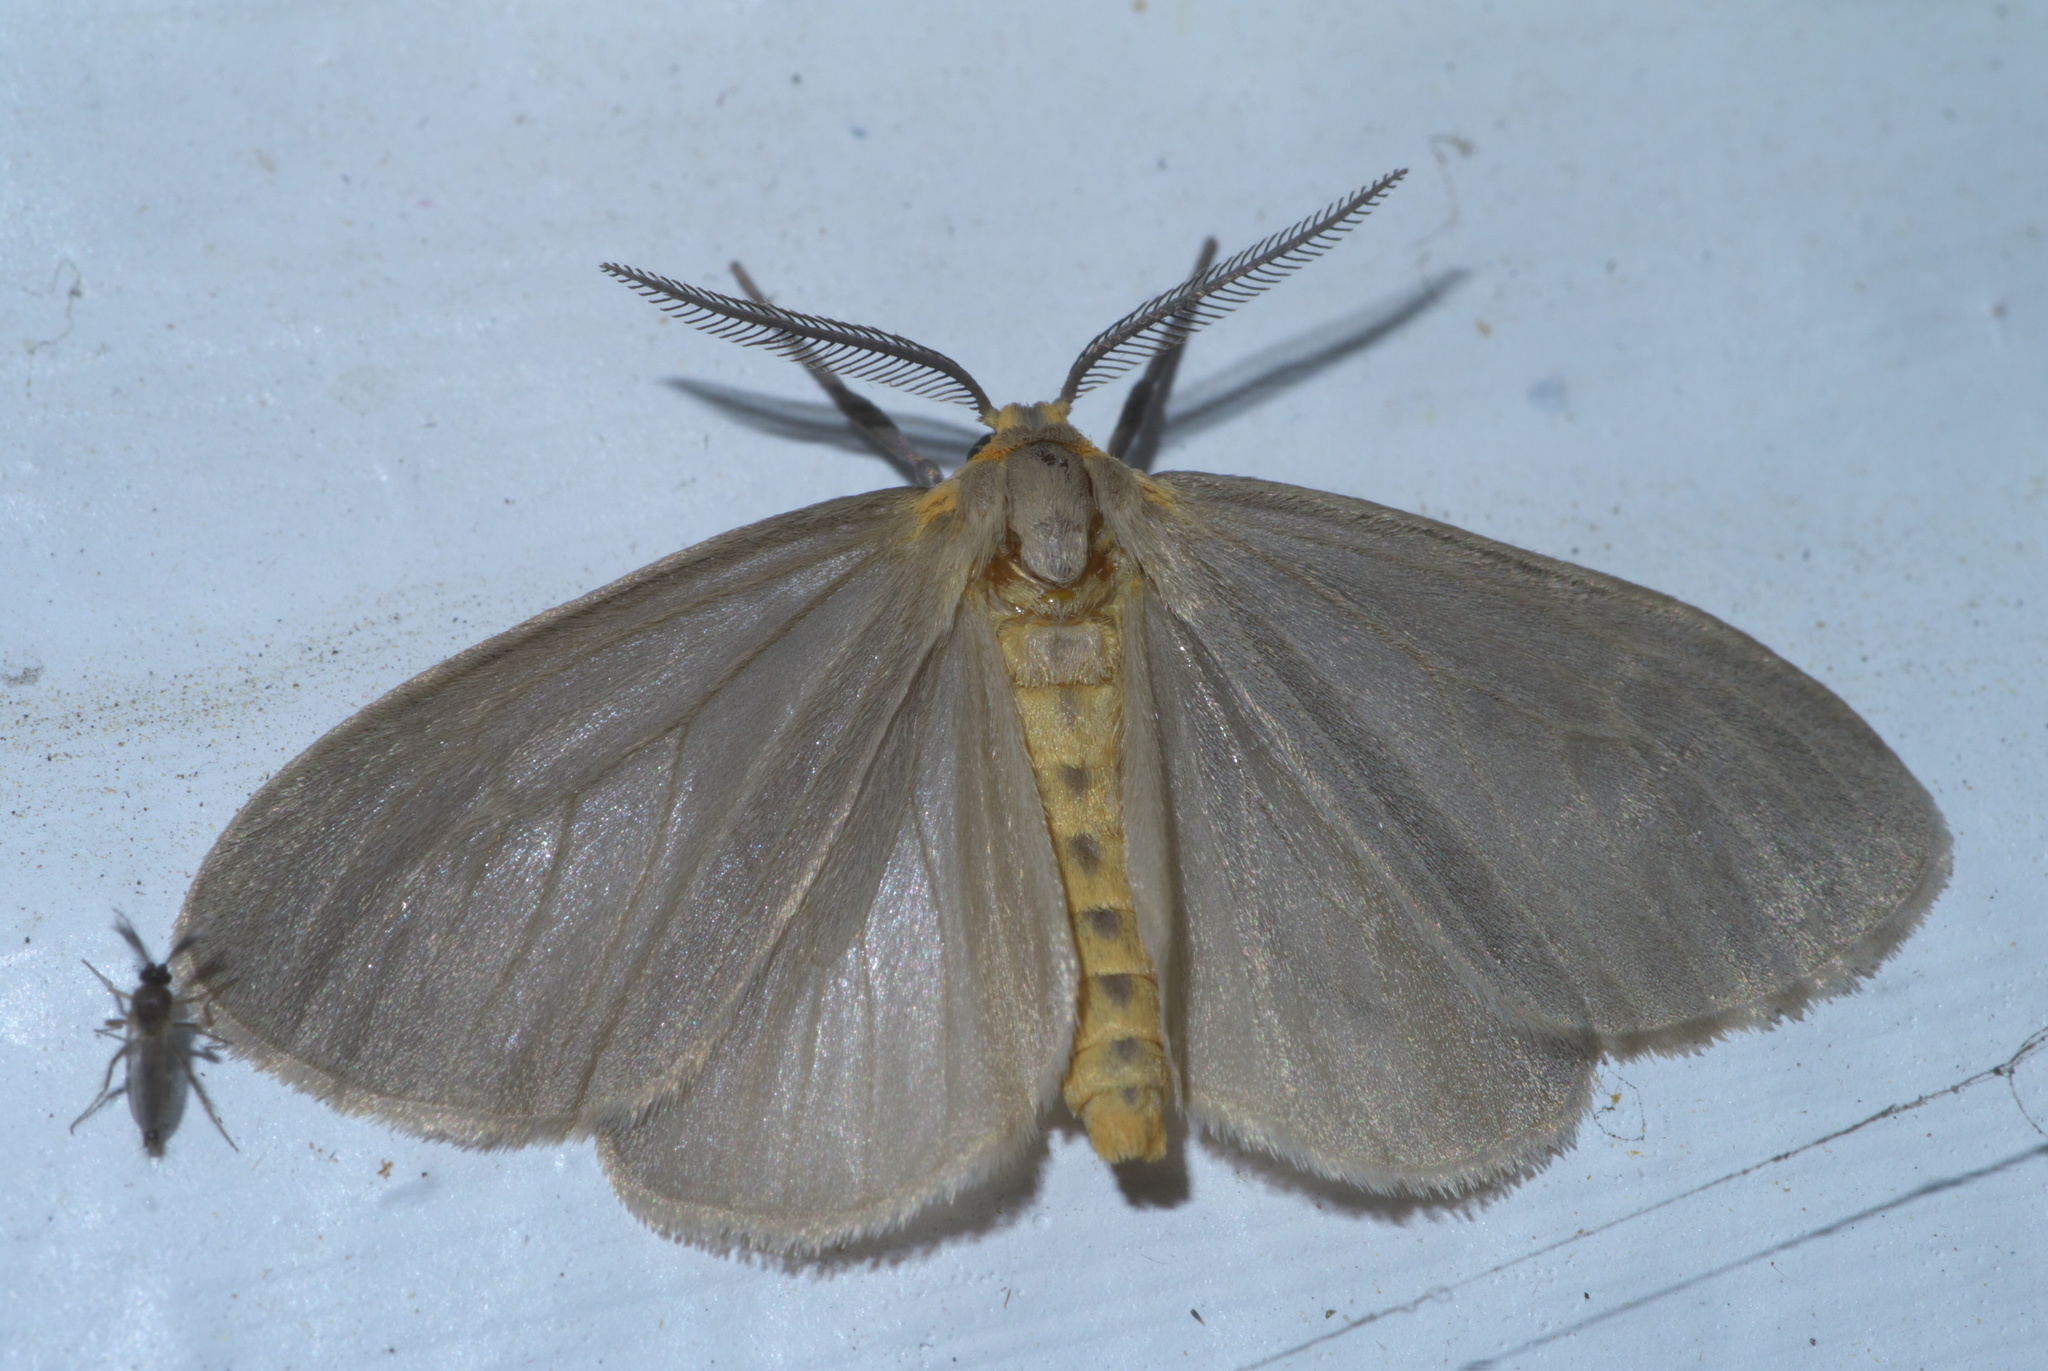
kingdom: Animalia
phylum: Arthropoda
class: Insecta
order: Lepidoptera
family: Erebidae
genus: Pagara
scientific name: Pagara simplex
